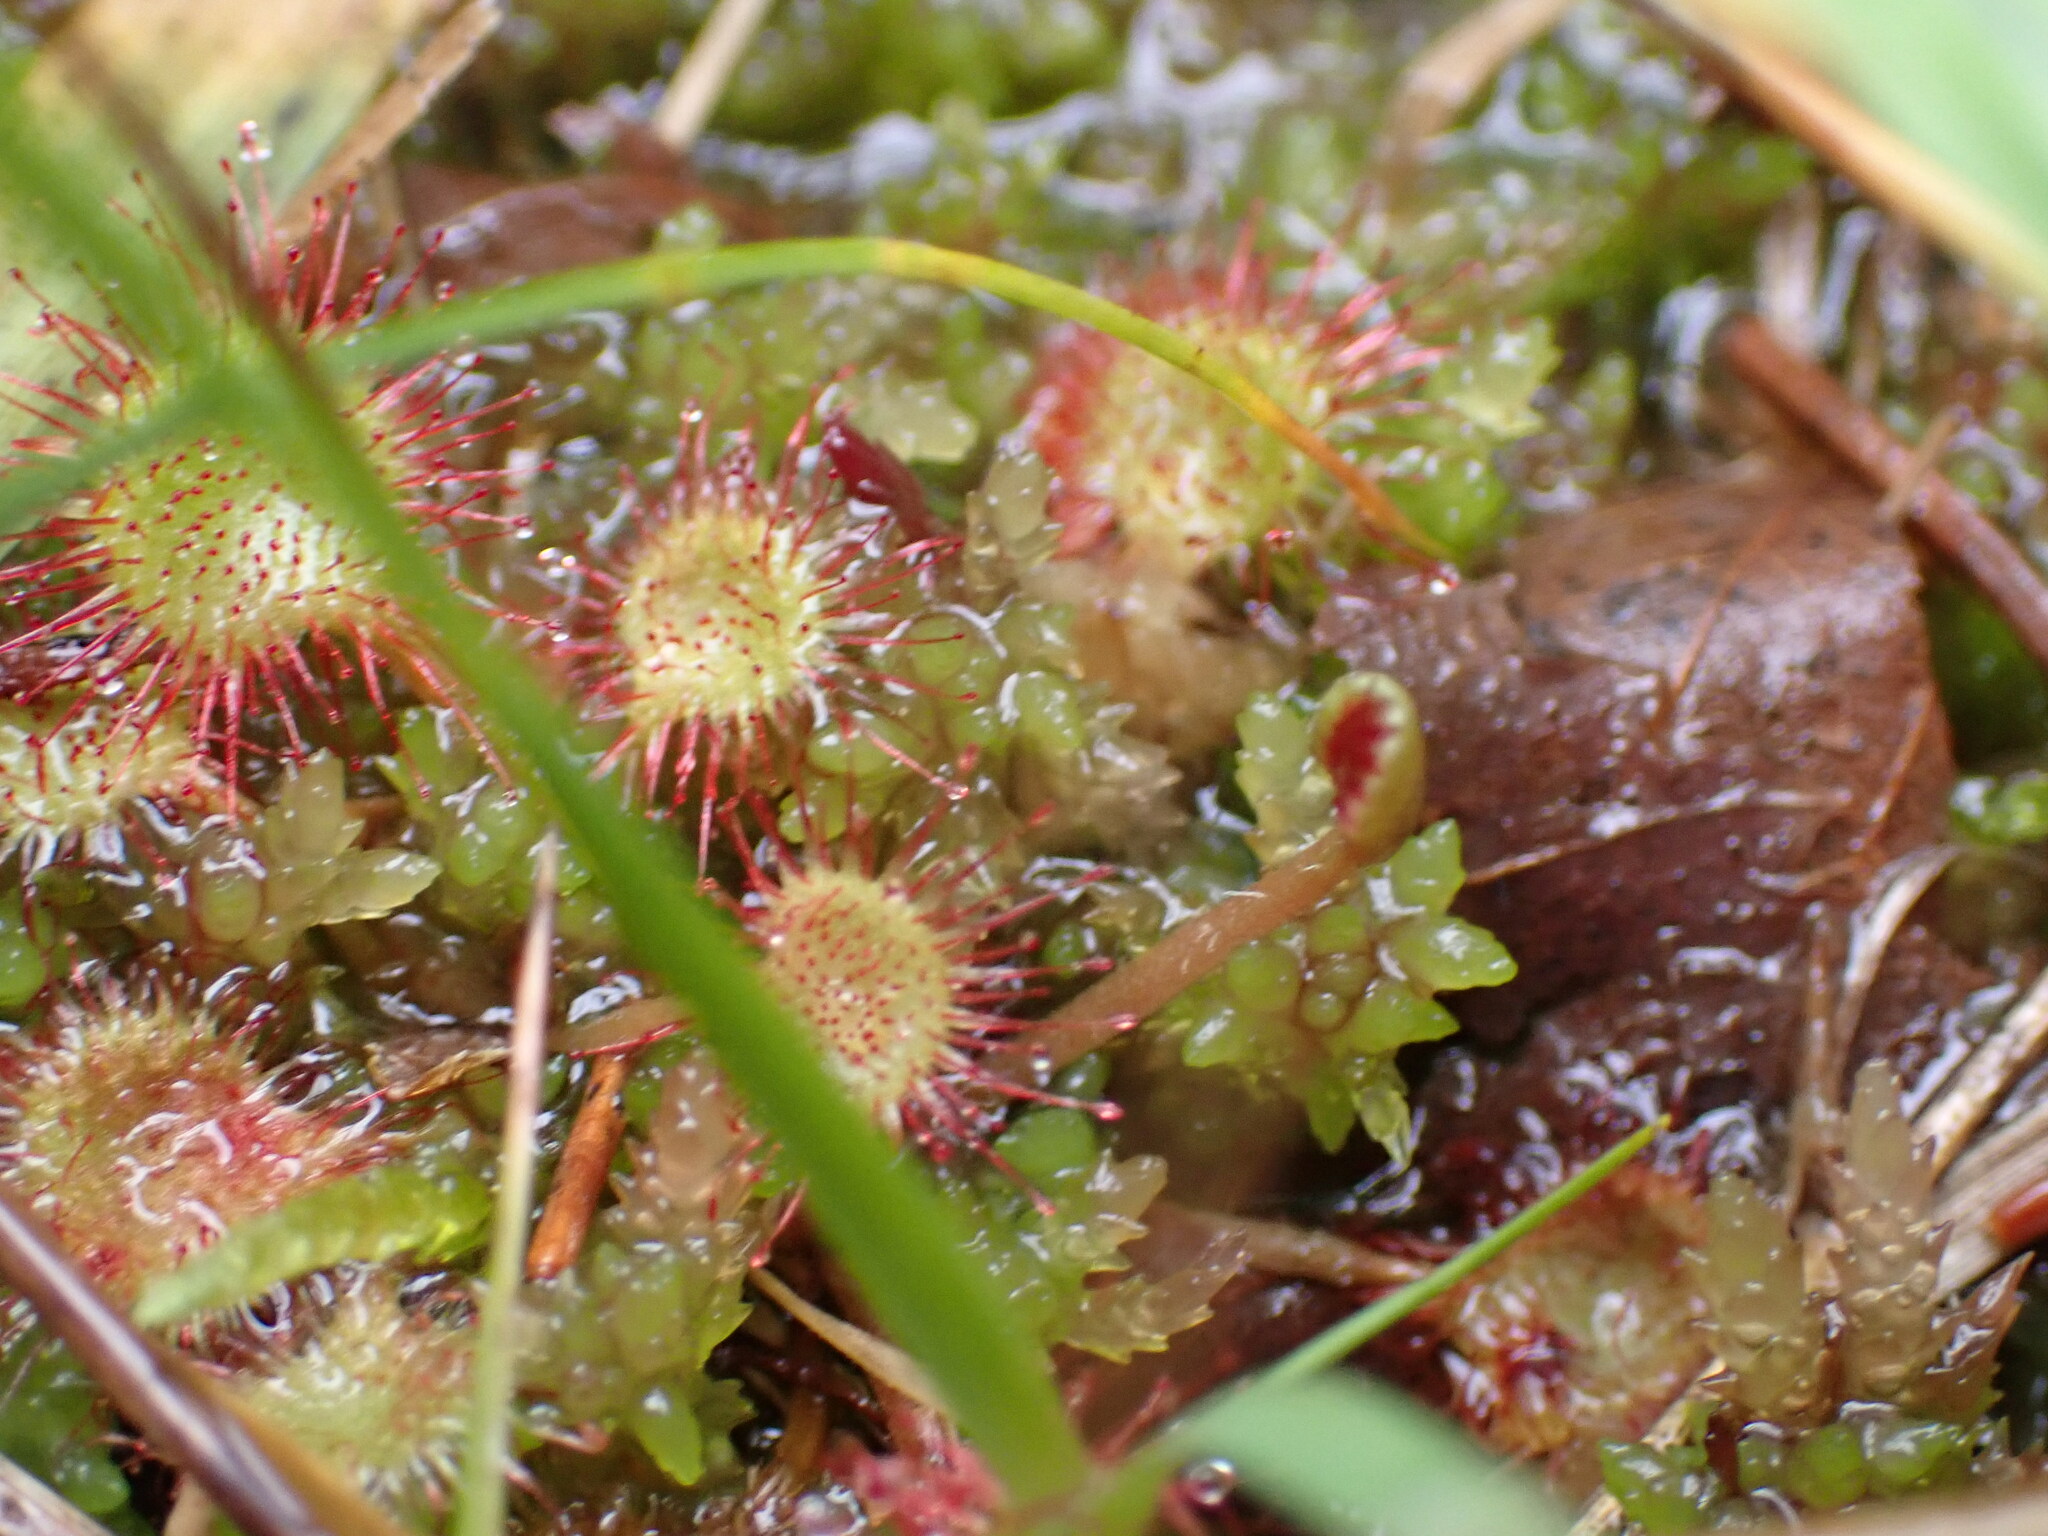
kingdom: Plantae
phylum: Tracheophyta
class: Magnoliopsida
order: Caryophyllales
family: Droseraceae
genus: Drosera
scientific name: Drosera rotundifolia
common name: Round-leaved sundew
